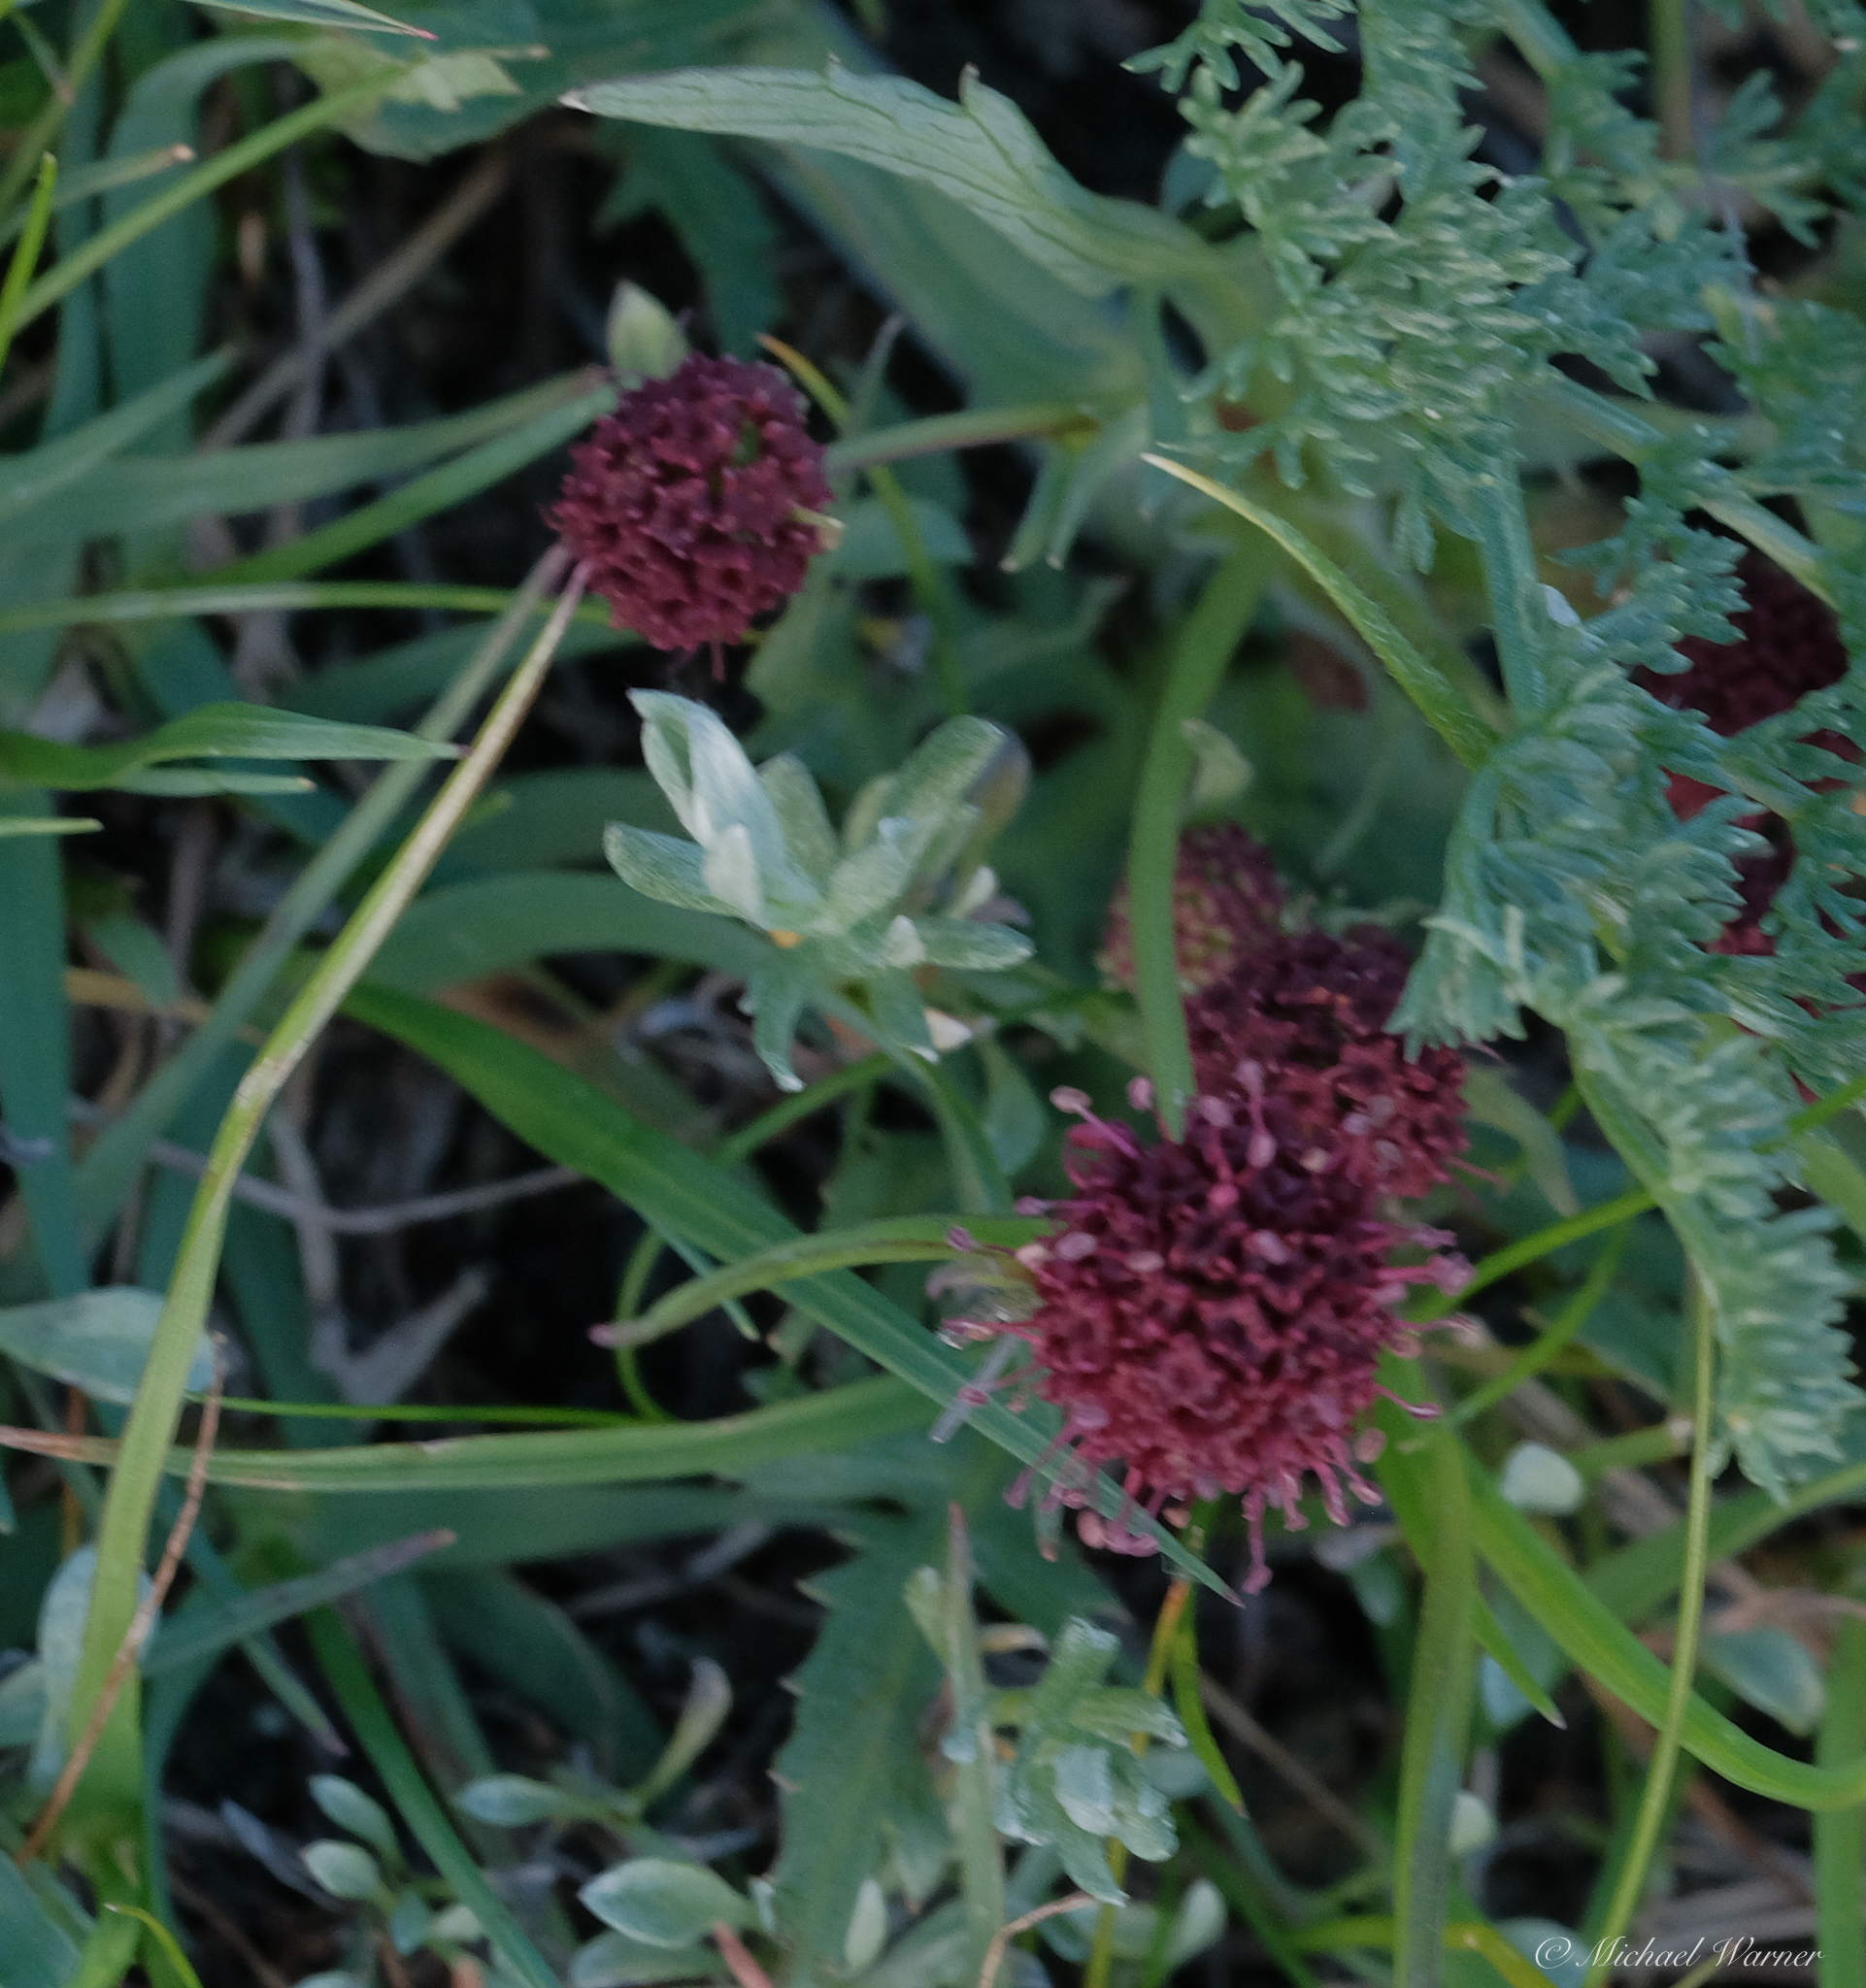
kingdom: Plantae
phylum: Tracheophyta
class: Magnoliopsida
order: Apiales
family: Apiaceae
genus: Sanicula
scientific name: Sanicula bipinnatifida
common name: Shoe-buttons
